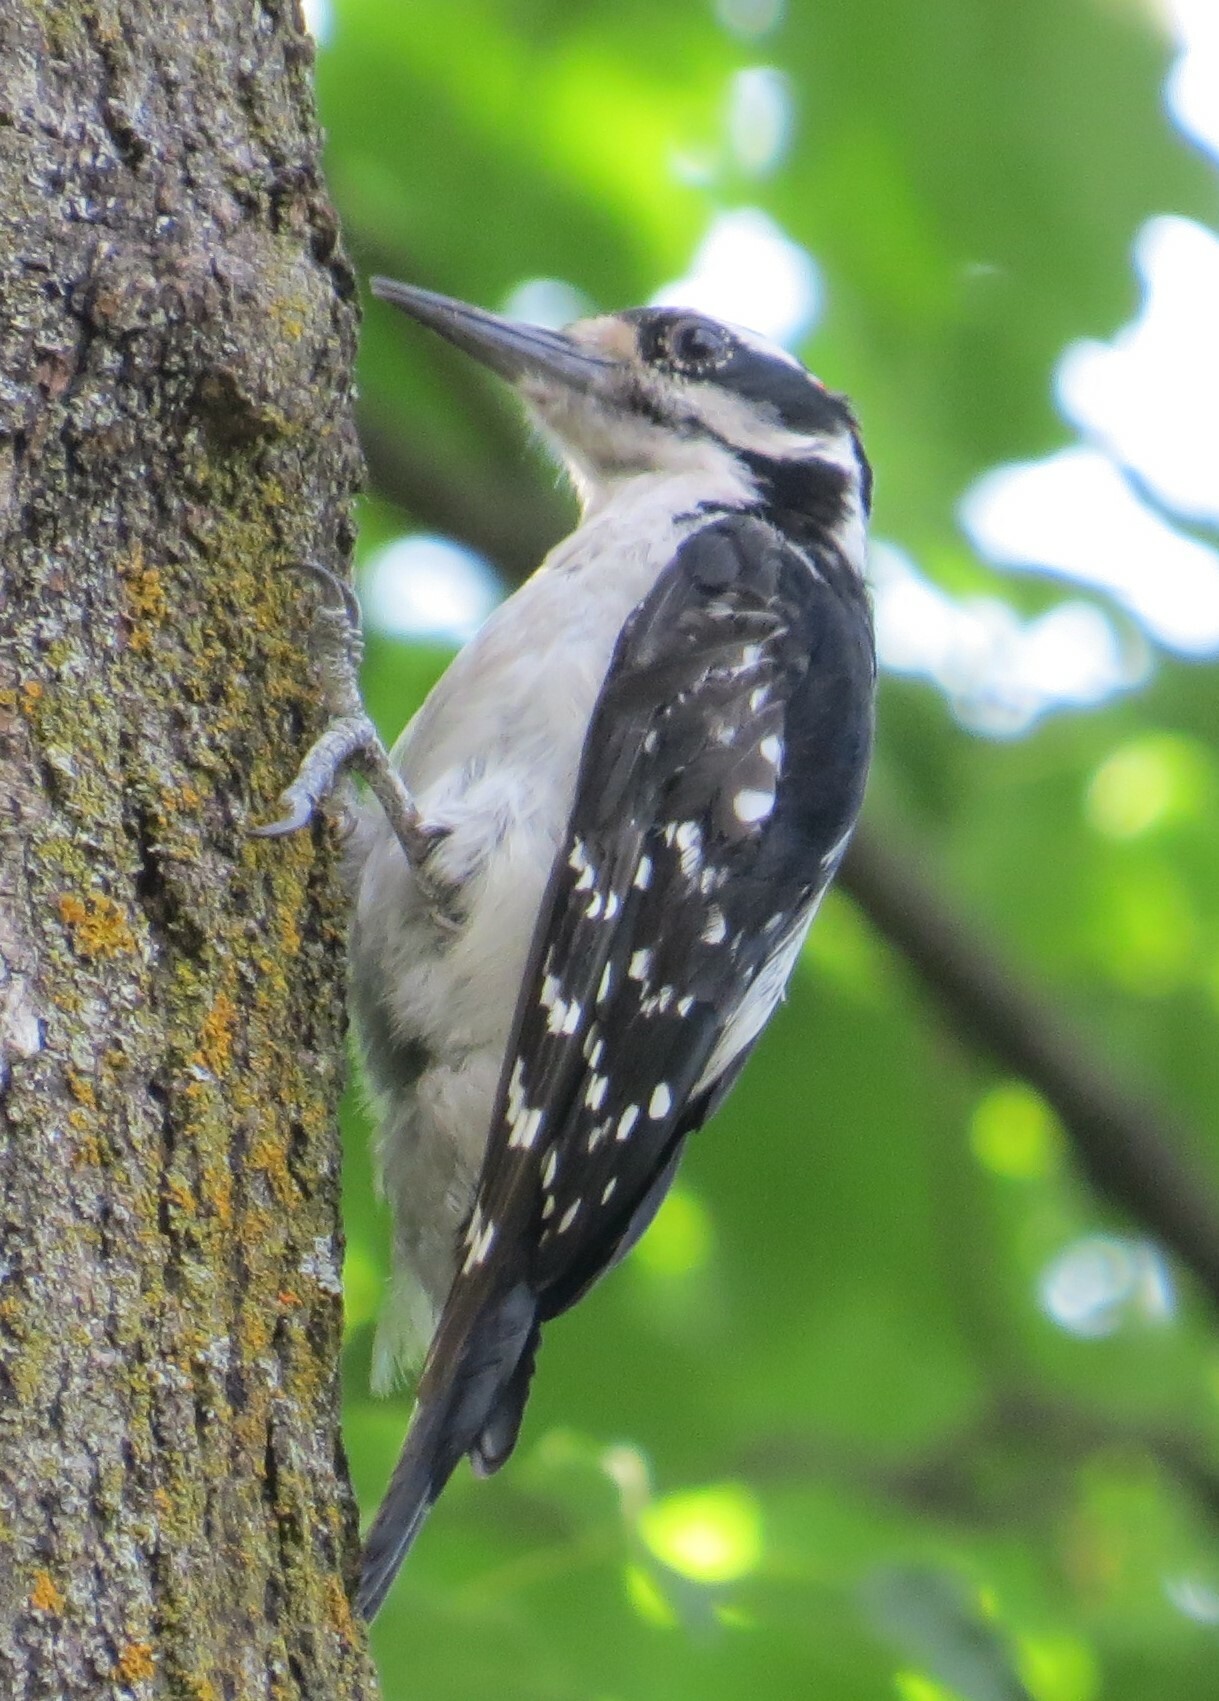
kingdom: Animalia
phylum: Chordata
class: Aves
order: Piciformes
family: Picidae
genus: Leuconotopicus
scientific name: Leuconotopicus villosus
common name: Hairy woodpecker
